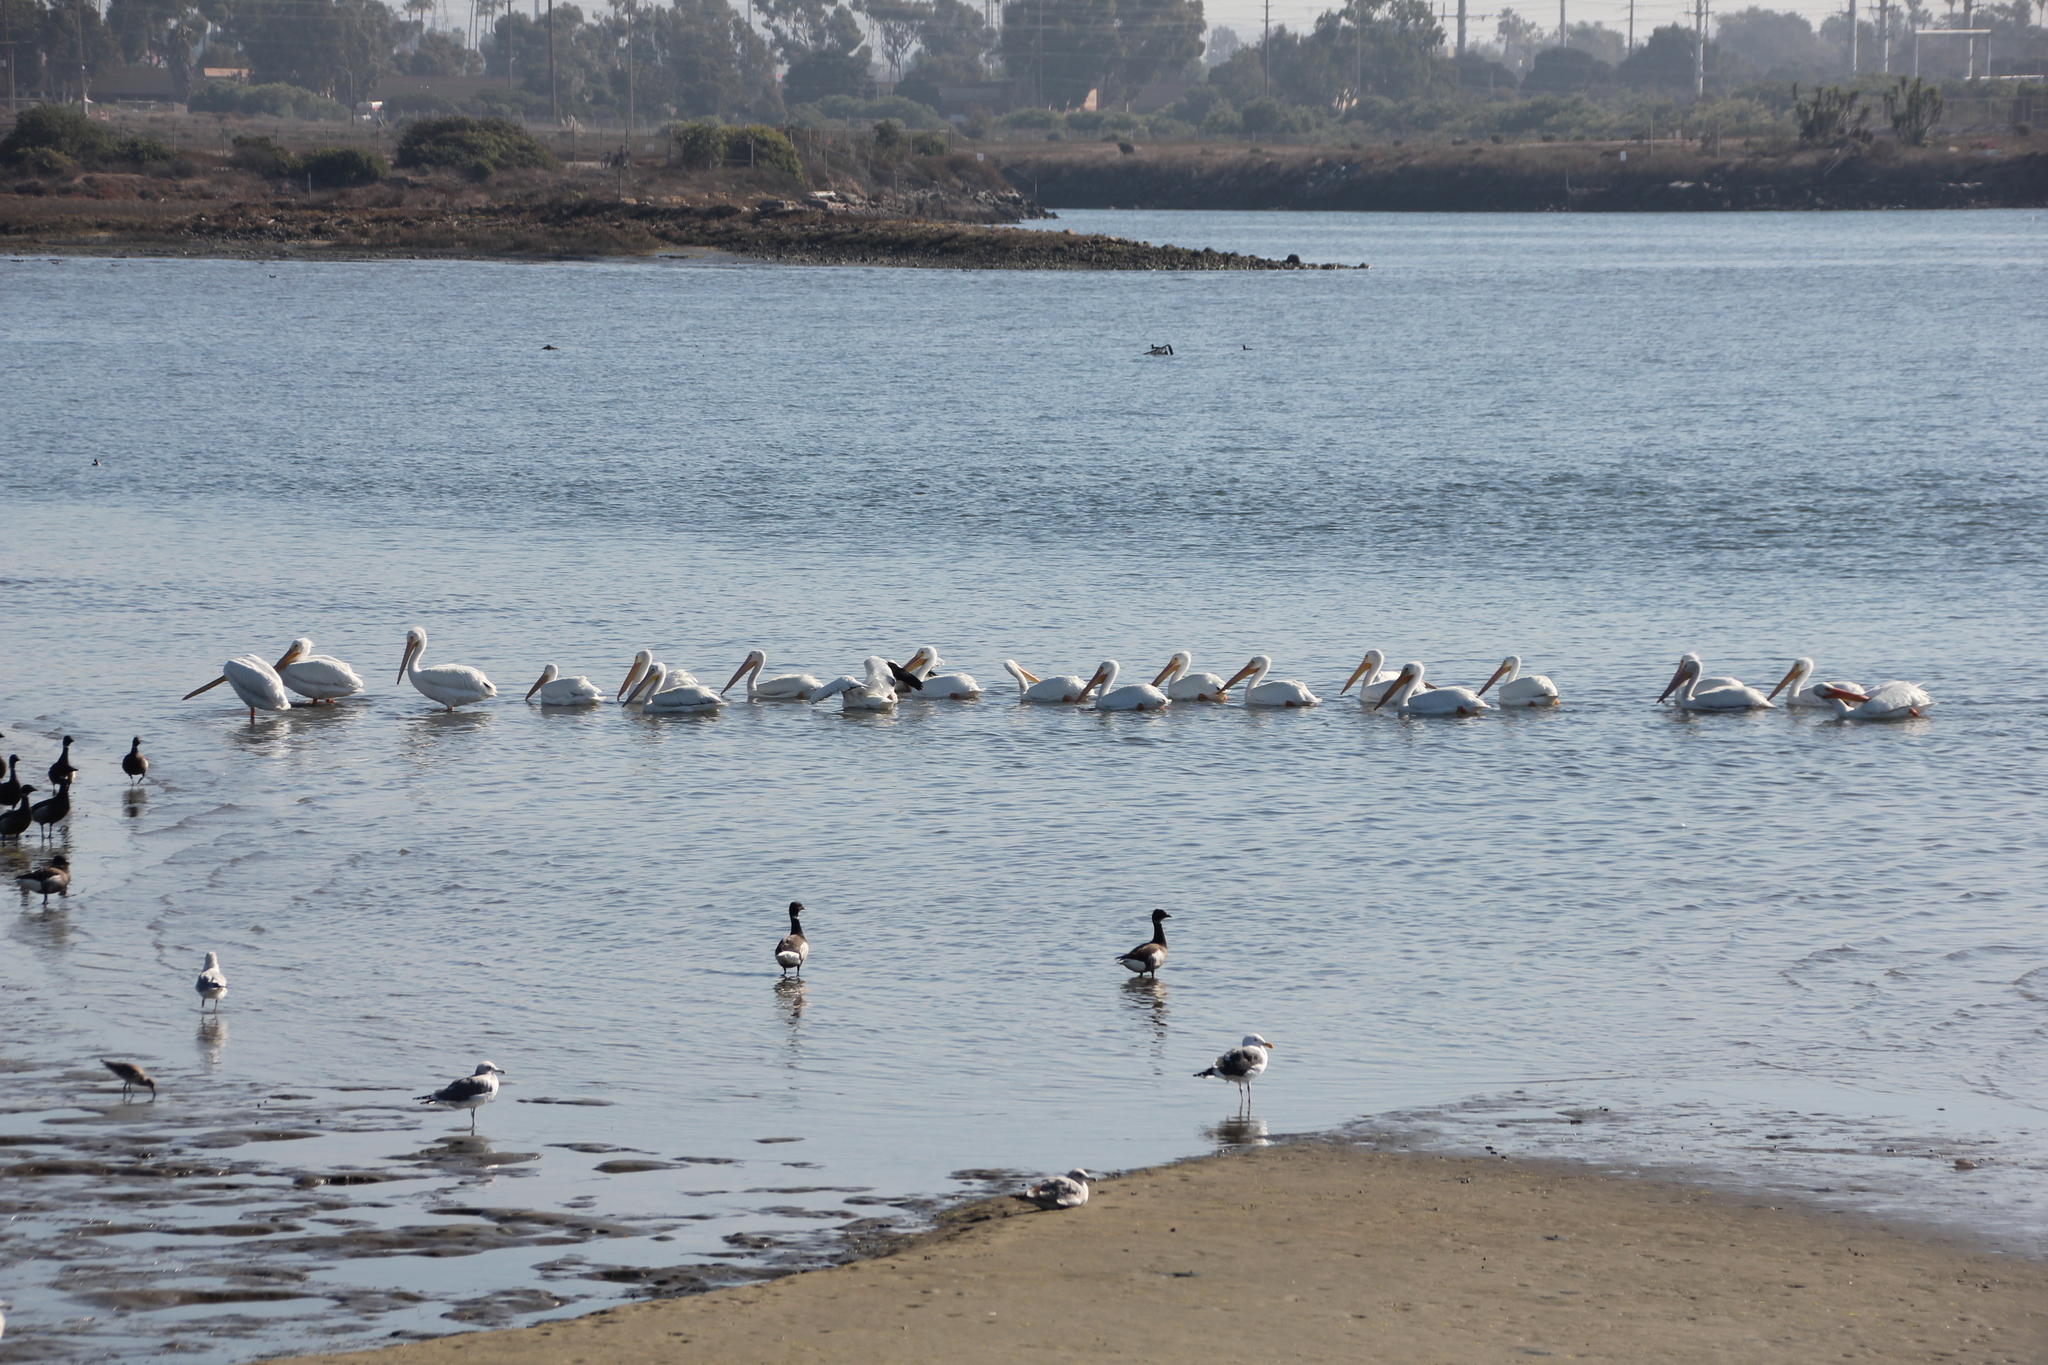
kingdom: Animalia
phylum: Chordata
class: Aves
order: Pelecaniformes
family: Pelecanidae
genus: Pelecanus
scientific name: Pelecanus erythrorhynchos
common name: American white pelican
